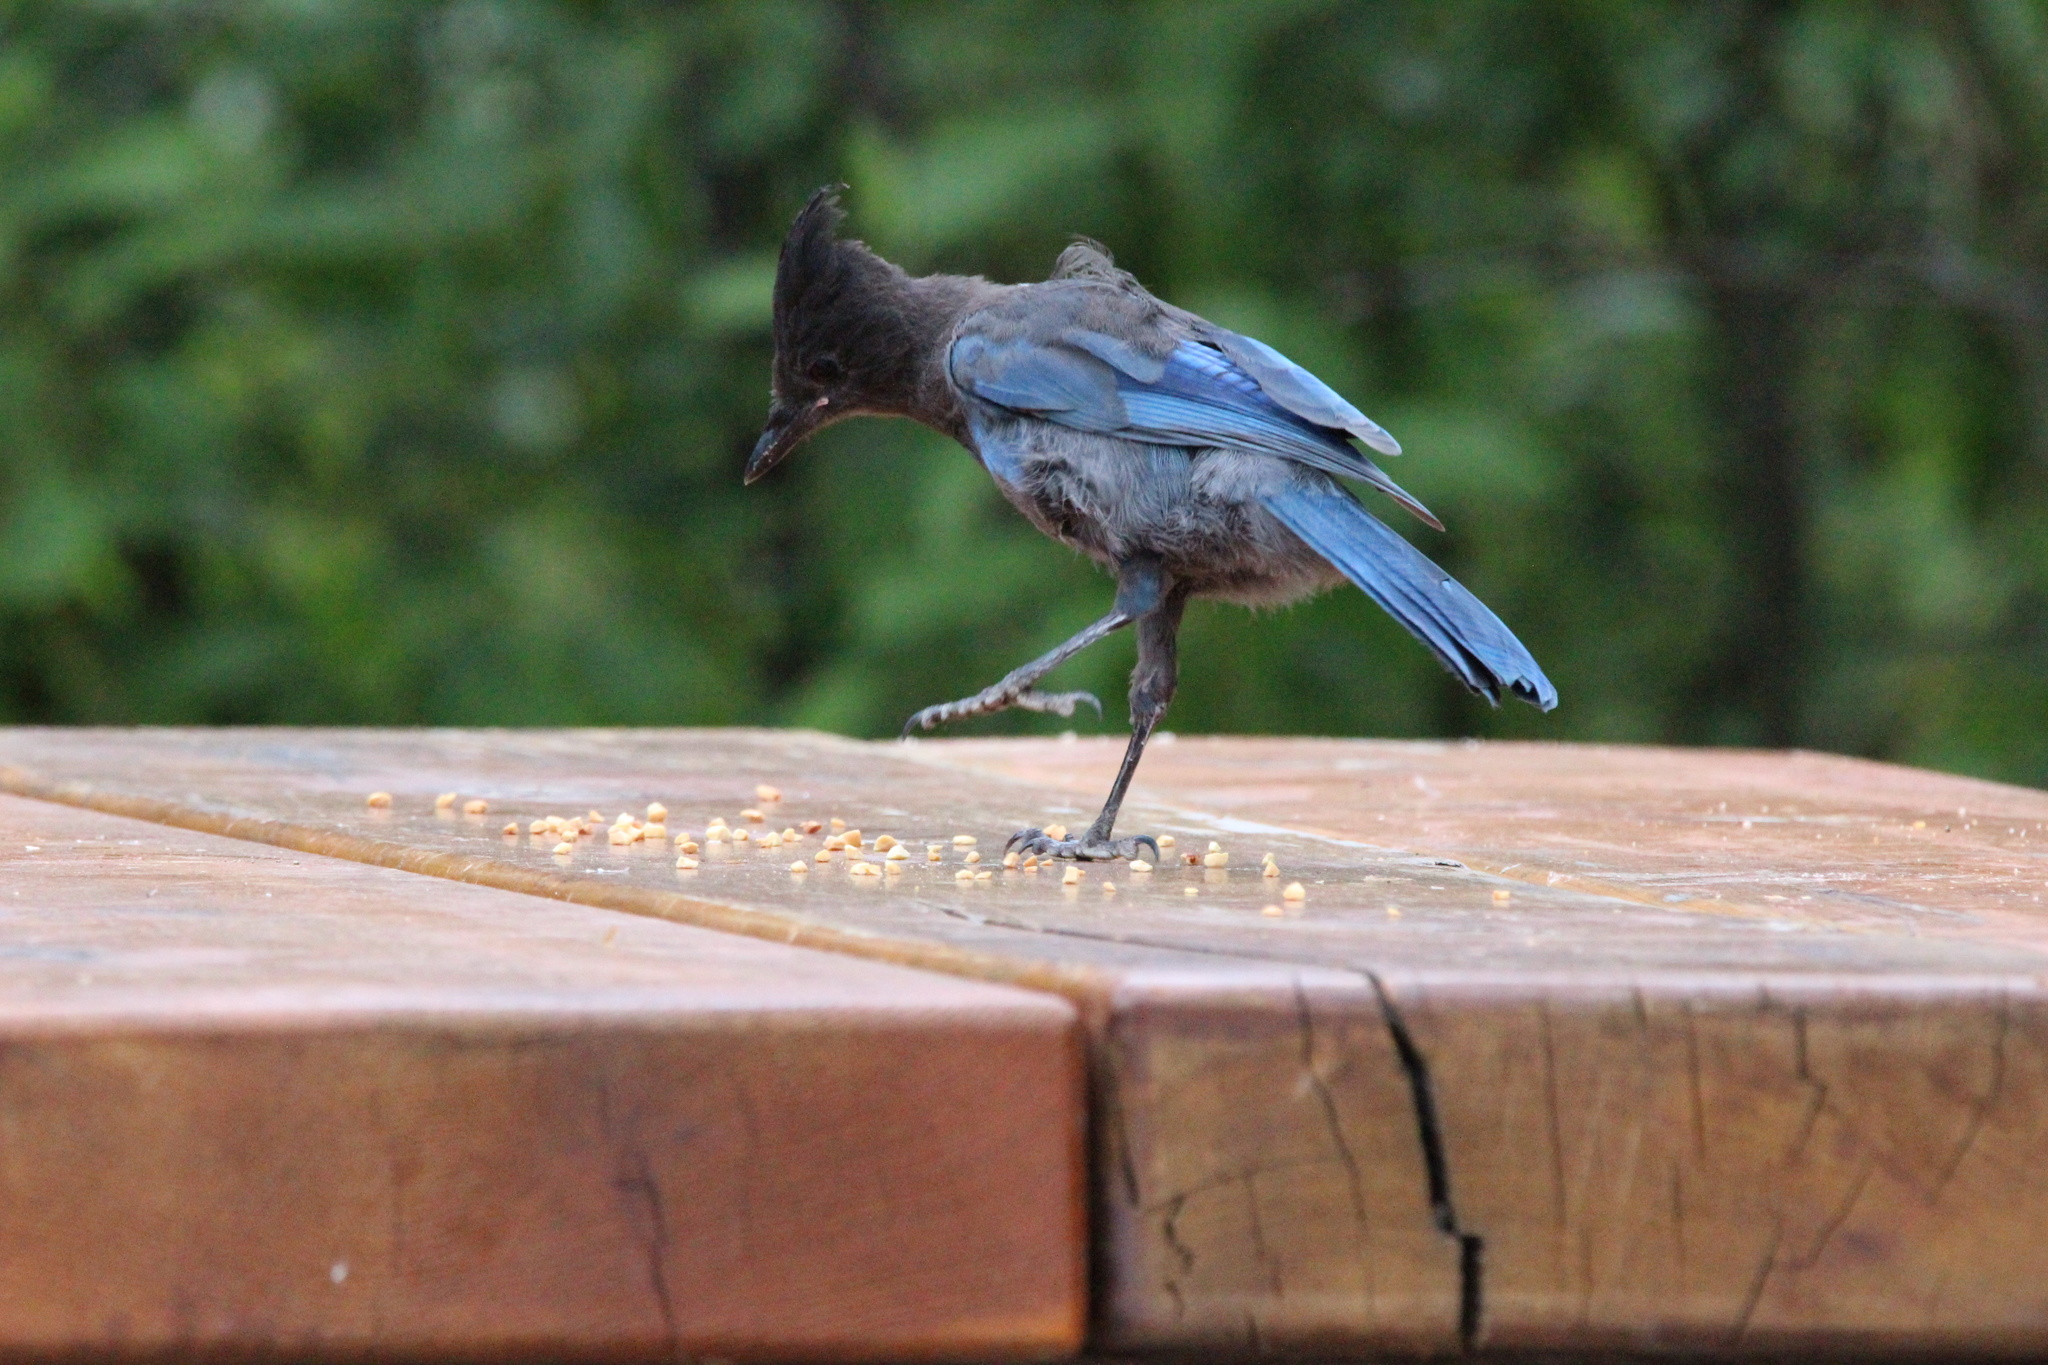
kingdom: Animalia
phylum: Chordata
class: Aves
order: Passeriformes
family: Corvidae
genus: Cyanocitta
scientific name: Cyanocitta stelleri
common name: Steller's jay
